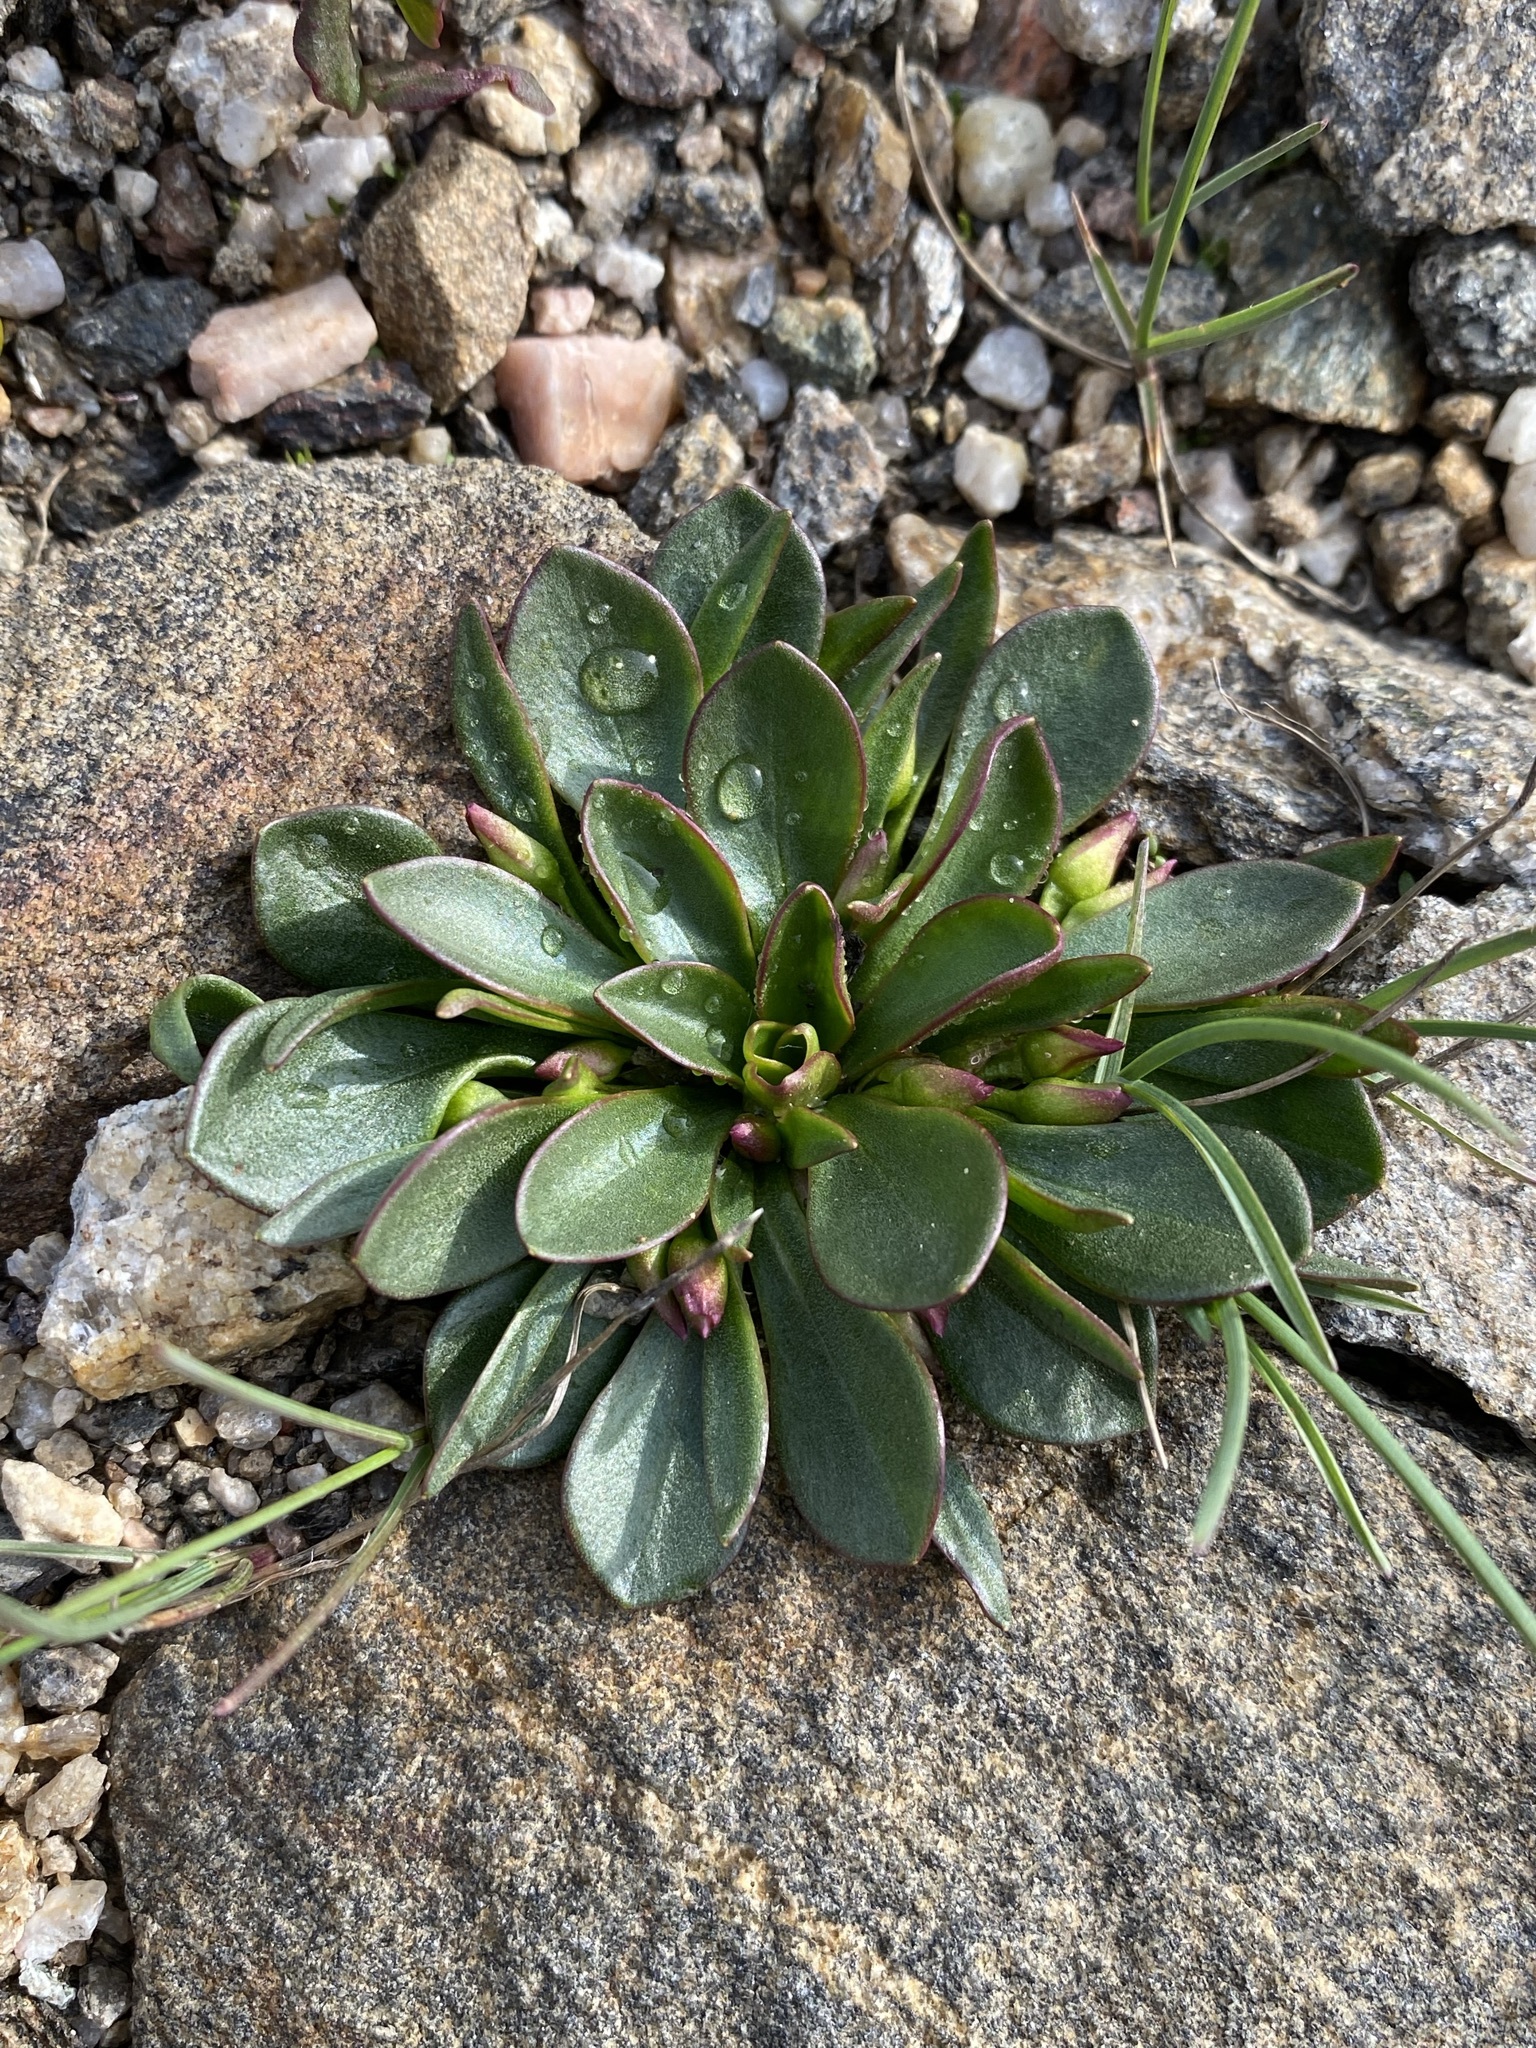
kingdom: Plantae
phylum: Tracheophyta
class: Magnoliopsida
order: Caryophyllales
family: Montiaceae
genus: Claytonia
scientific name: Claytonia megarhiza
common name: Alpine spring beauty
